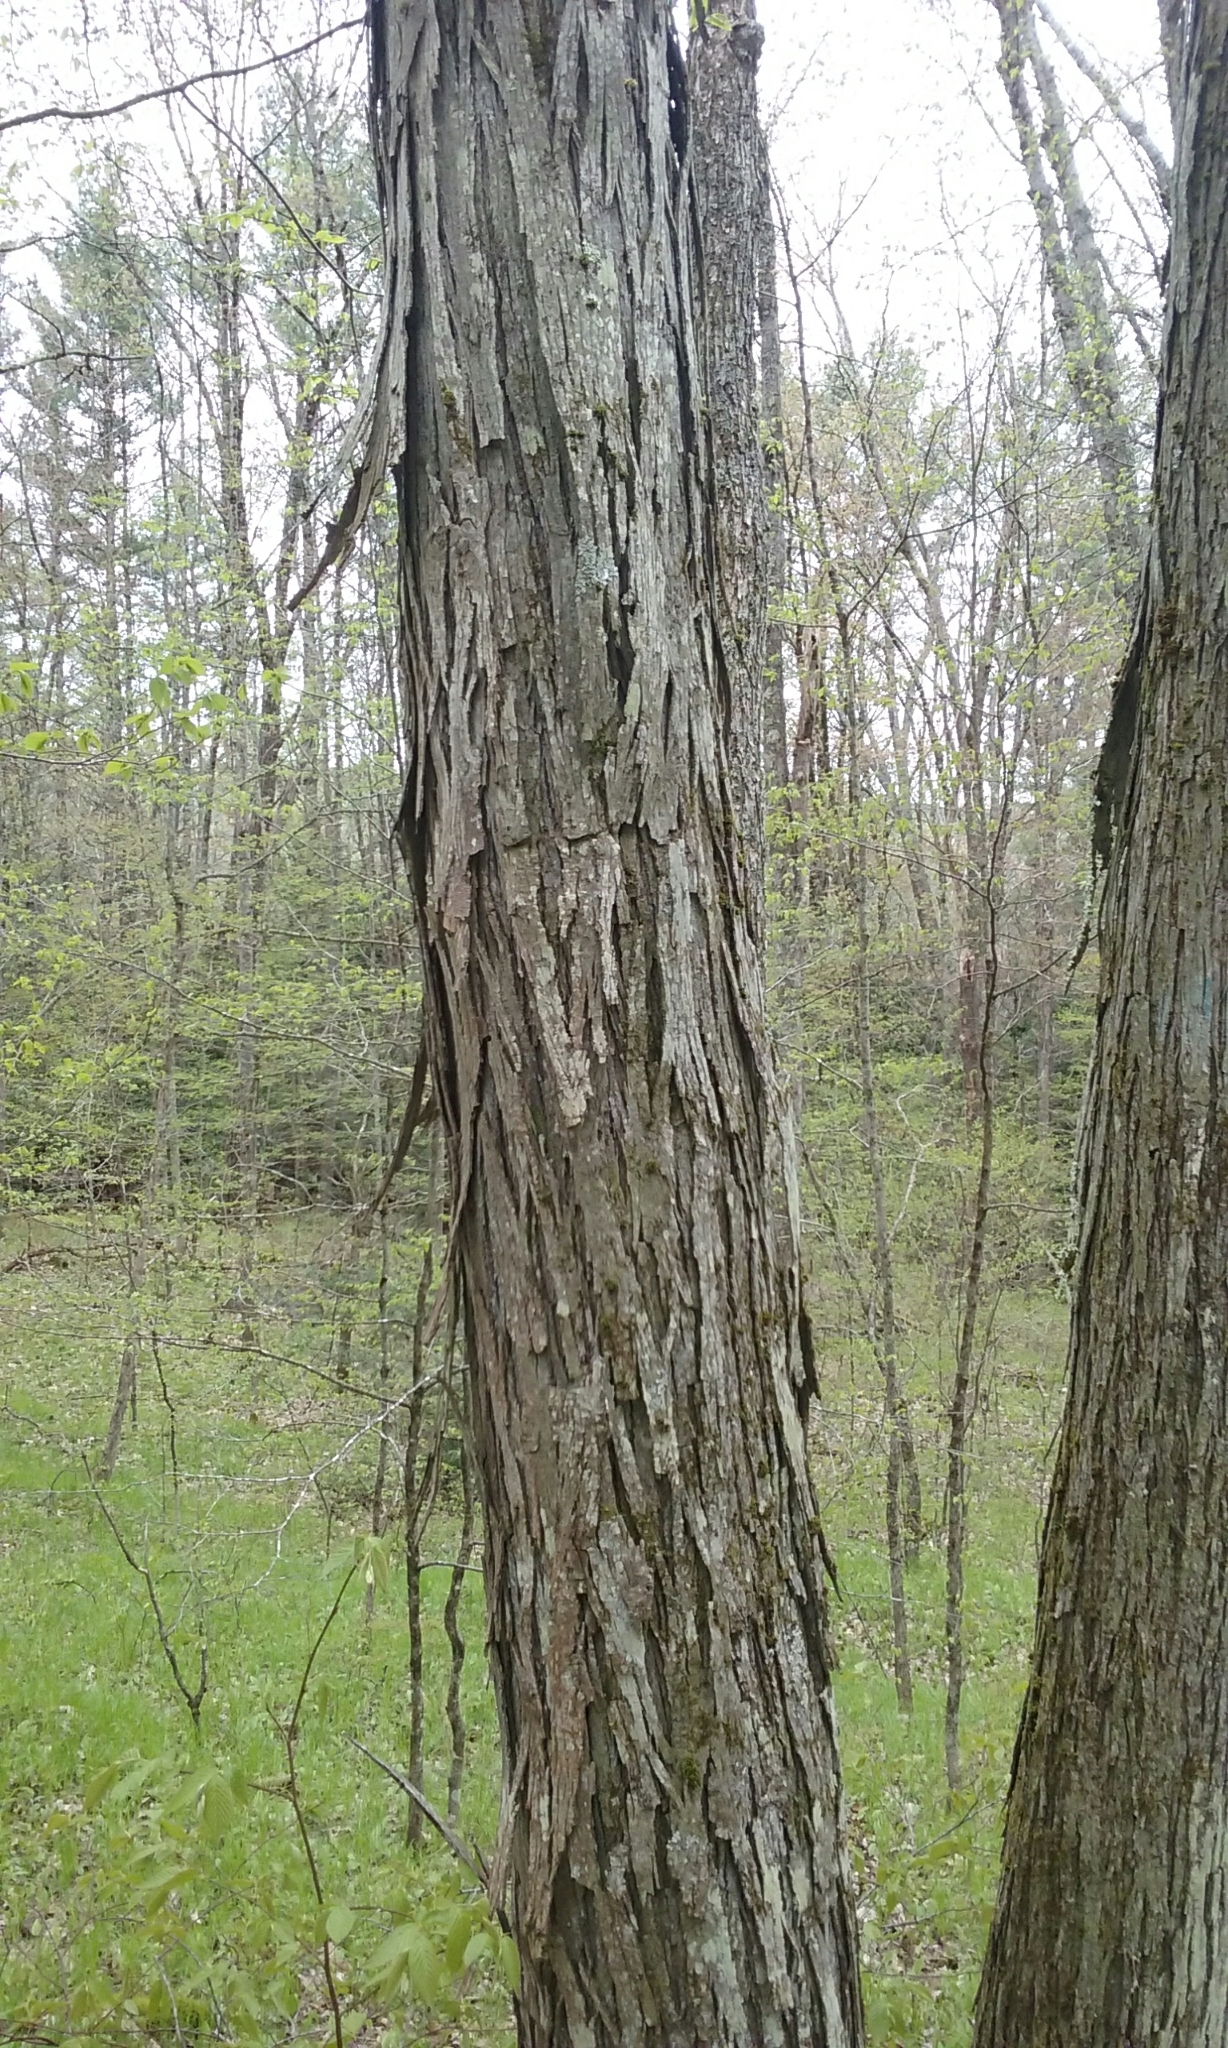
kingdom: Plantae
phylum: Tracheophyta
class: Magnoliopsida
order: Fagales
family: Juglandaceae
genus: Carya
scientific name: Carya ovata
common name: Shagbark hickory
